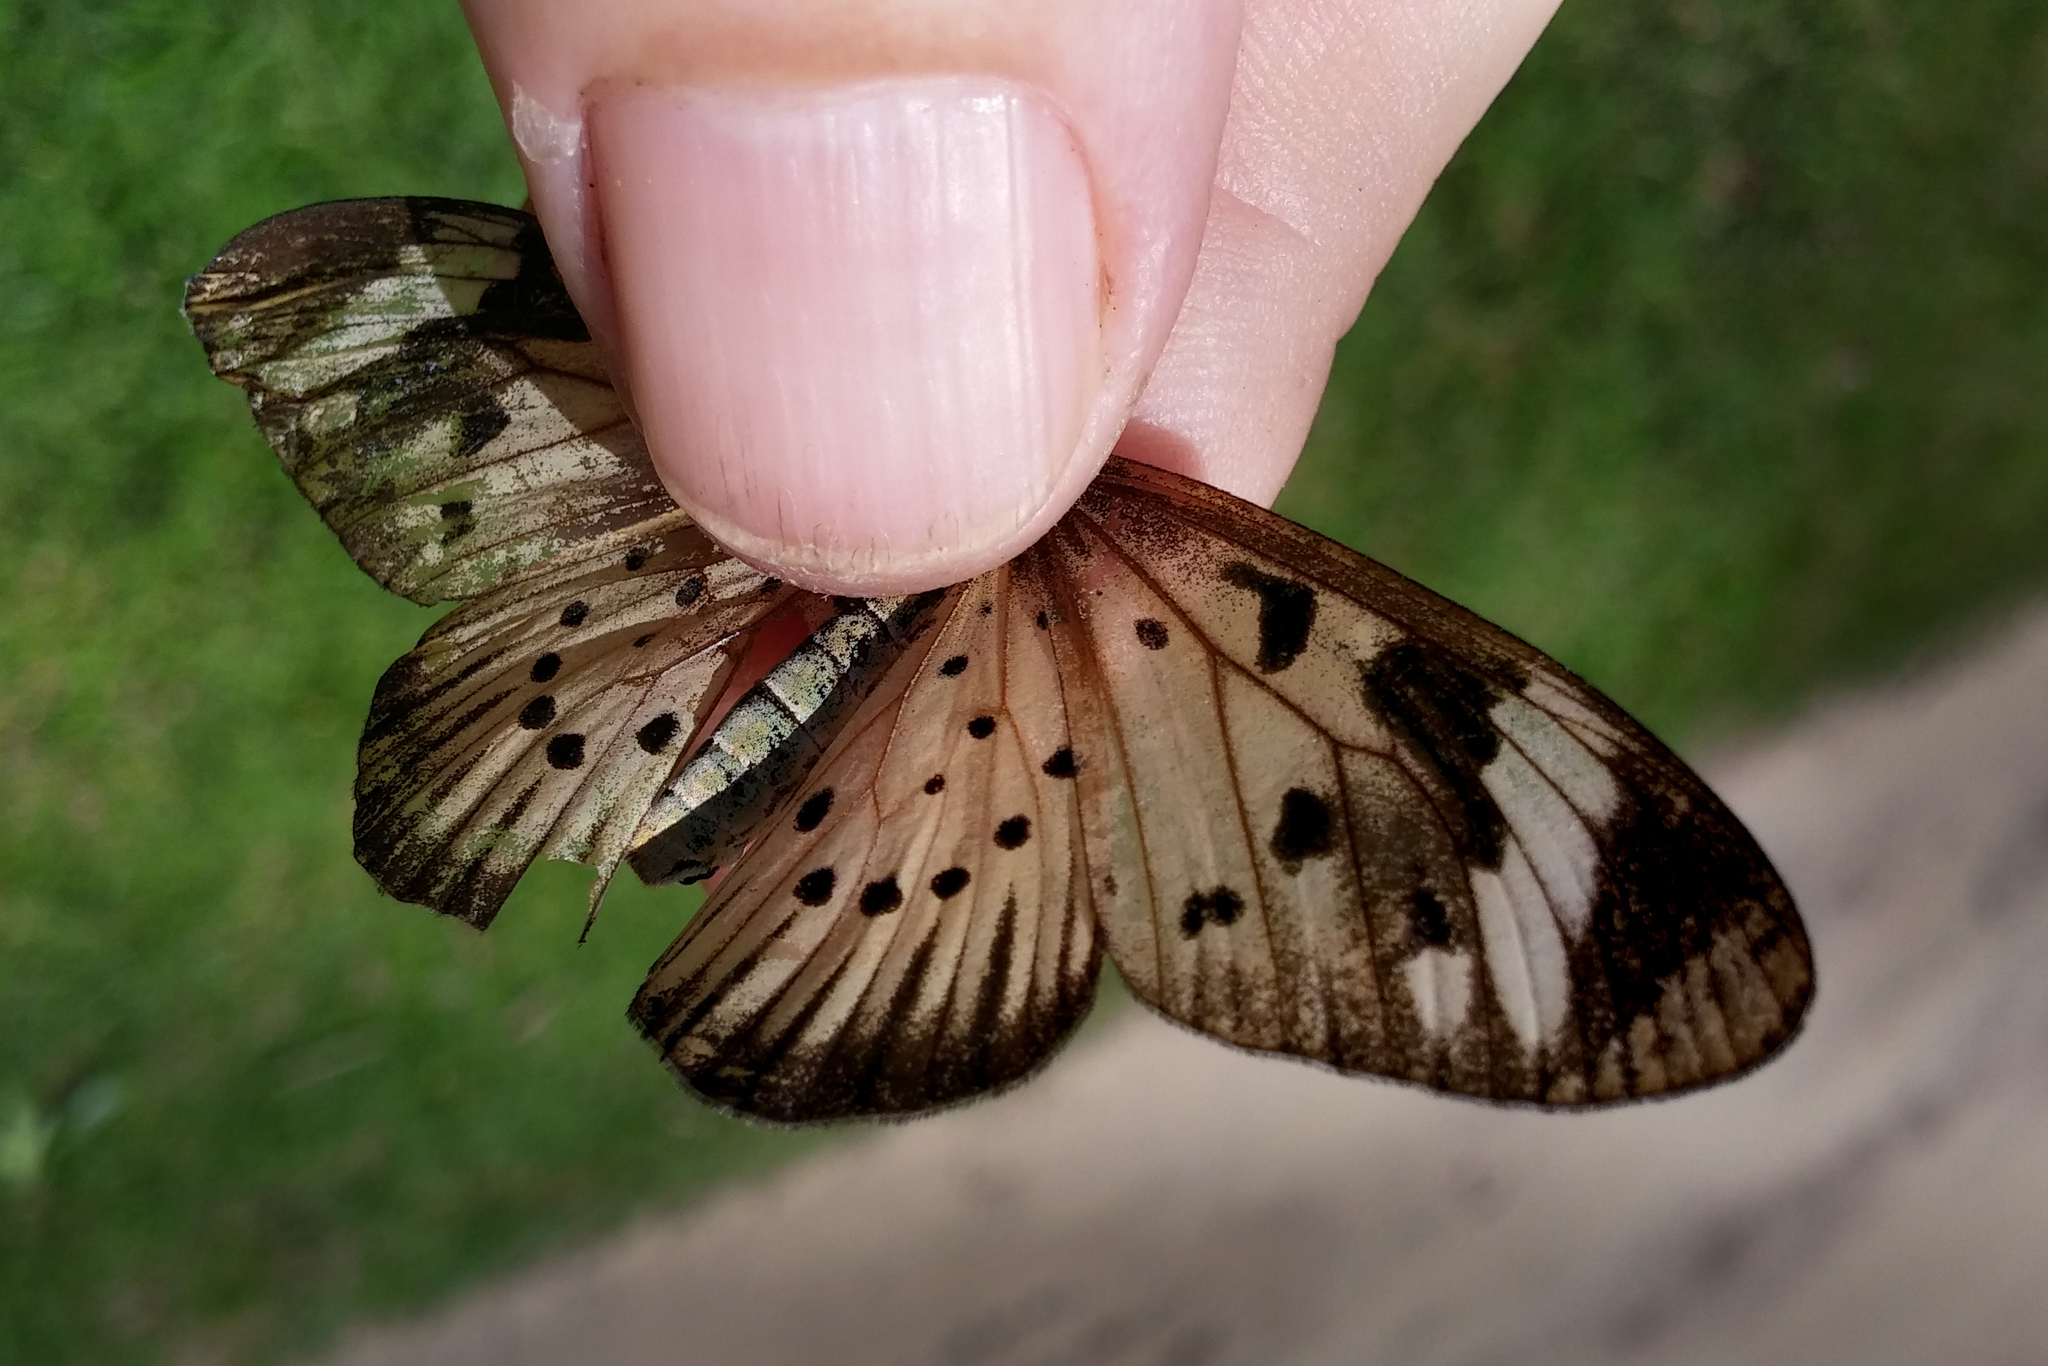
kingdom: Animalia
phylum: Arthropoda
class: Insecta
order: Lepidoptera
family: Nymphalidae
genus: Acraea
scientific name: Acraea Telchinia encedon
